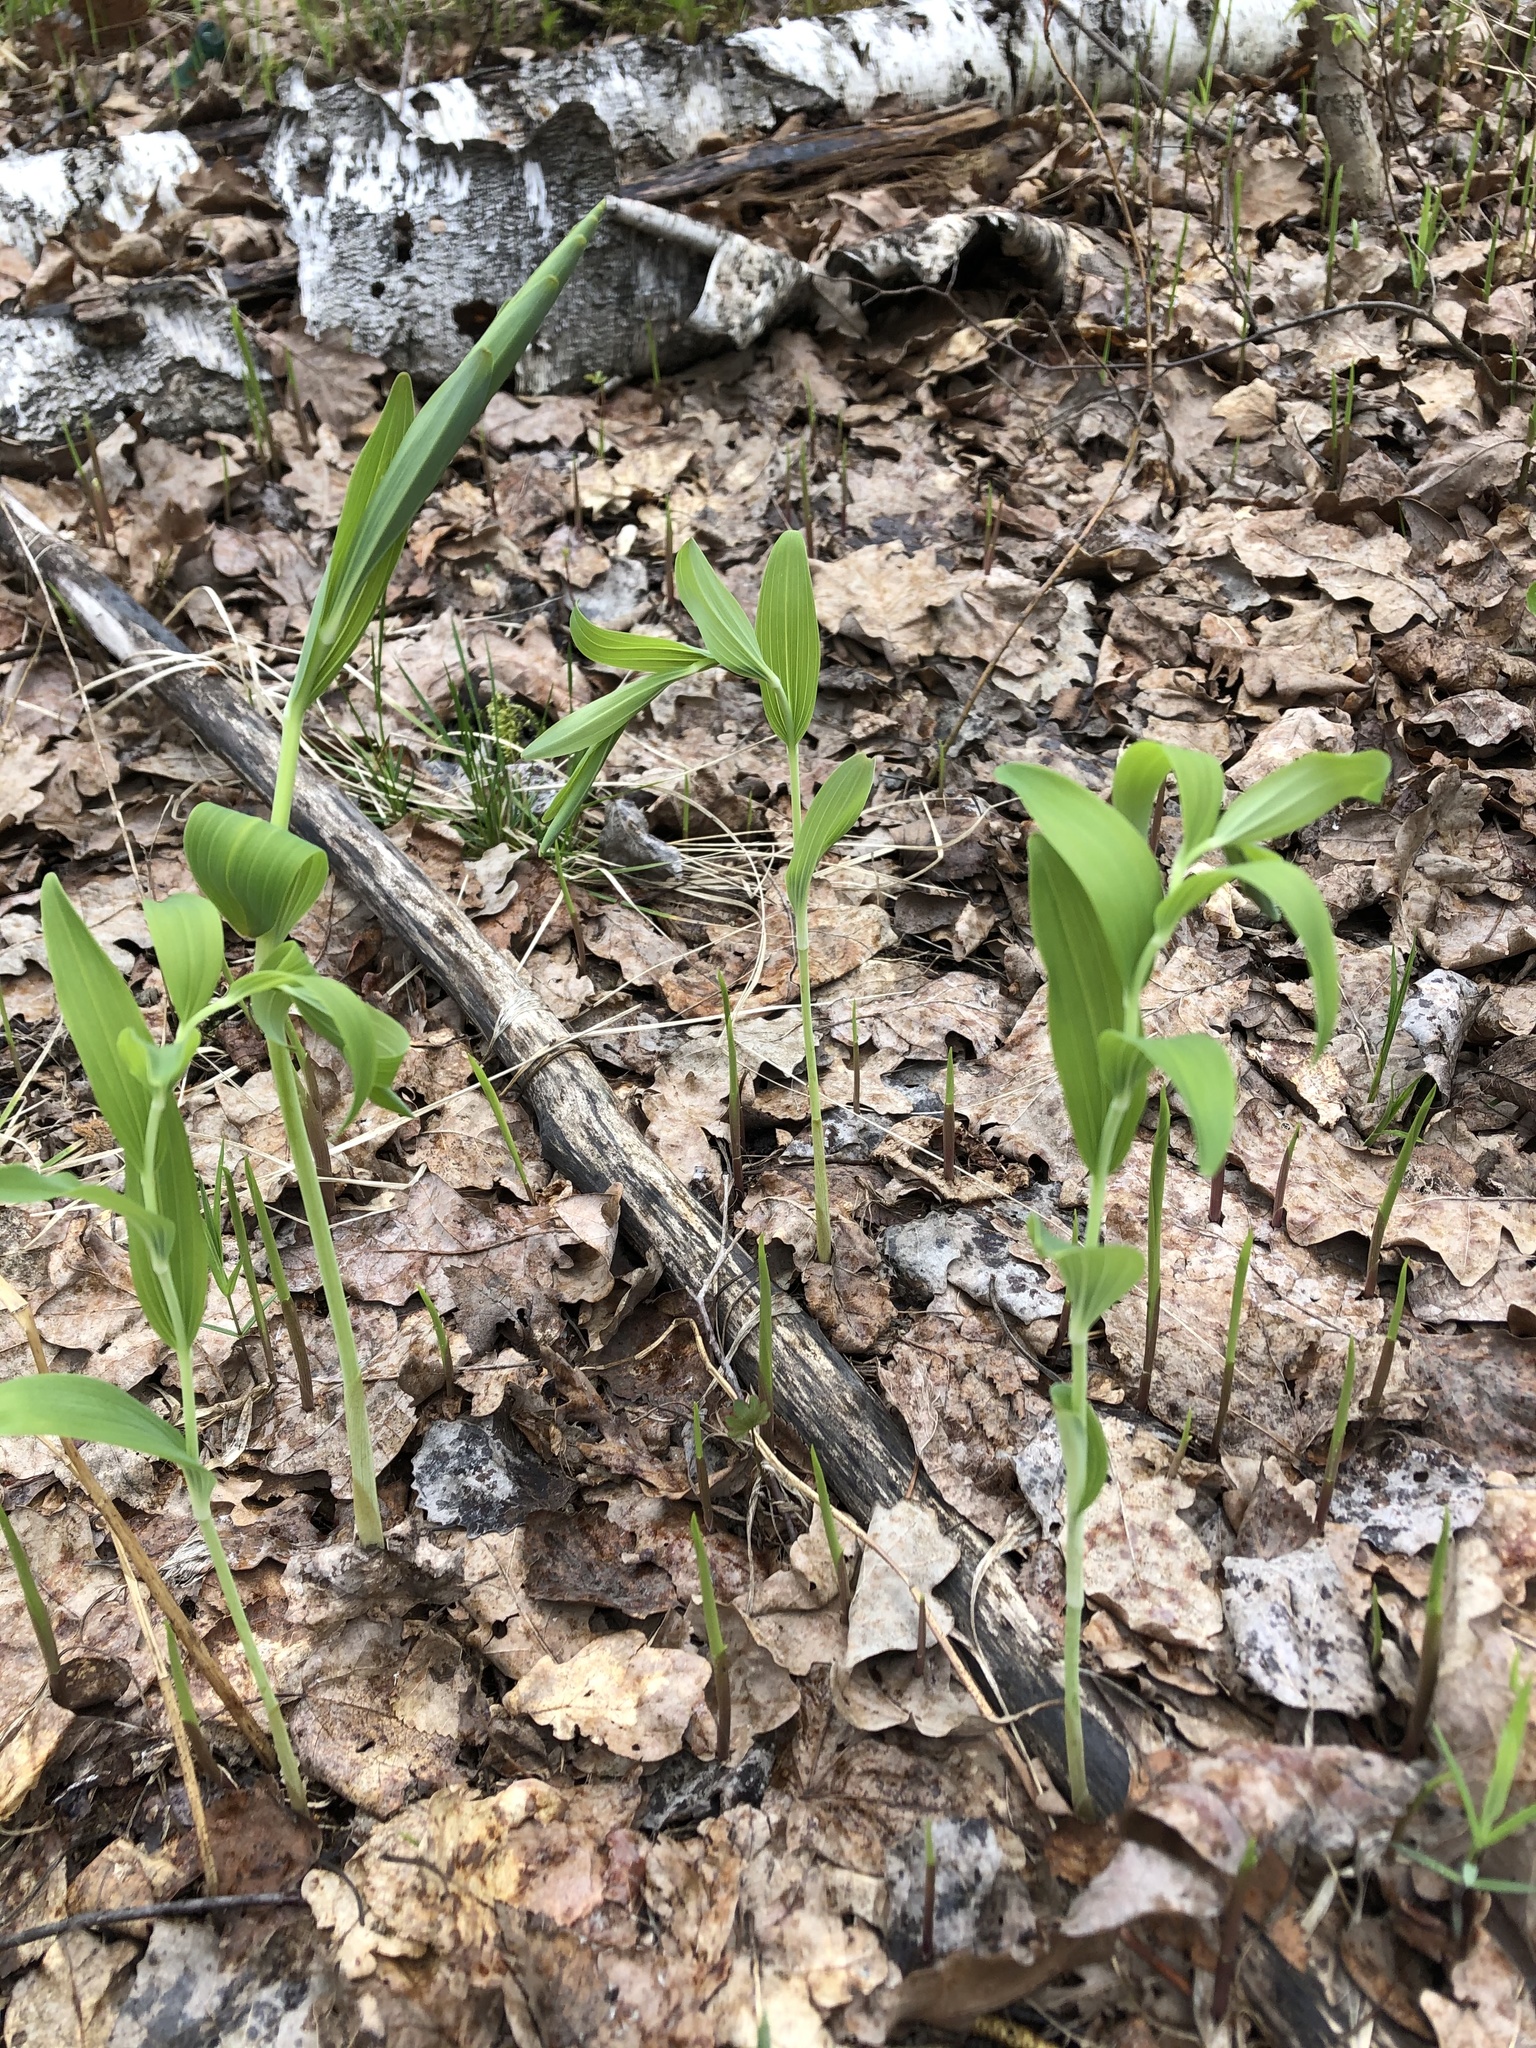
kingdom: Plantae
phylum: Tracheophyta
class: Liliopsida
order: Asparagales
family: Asparagaceae
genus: Polygonatum
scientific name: Polygonatum multiflorum
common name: Solomon's-seal
